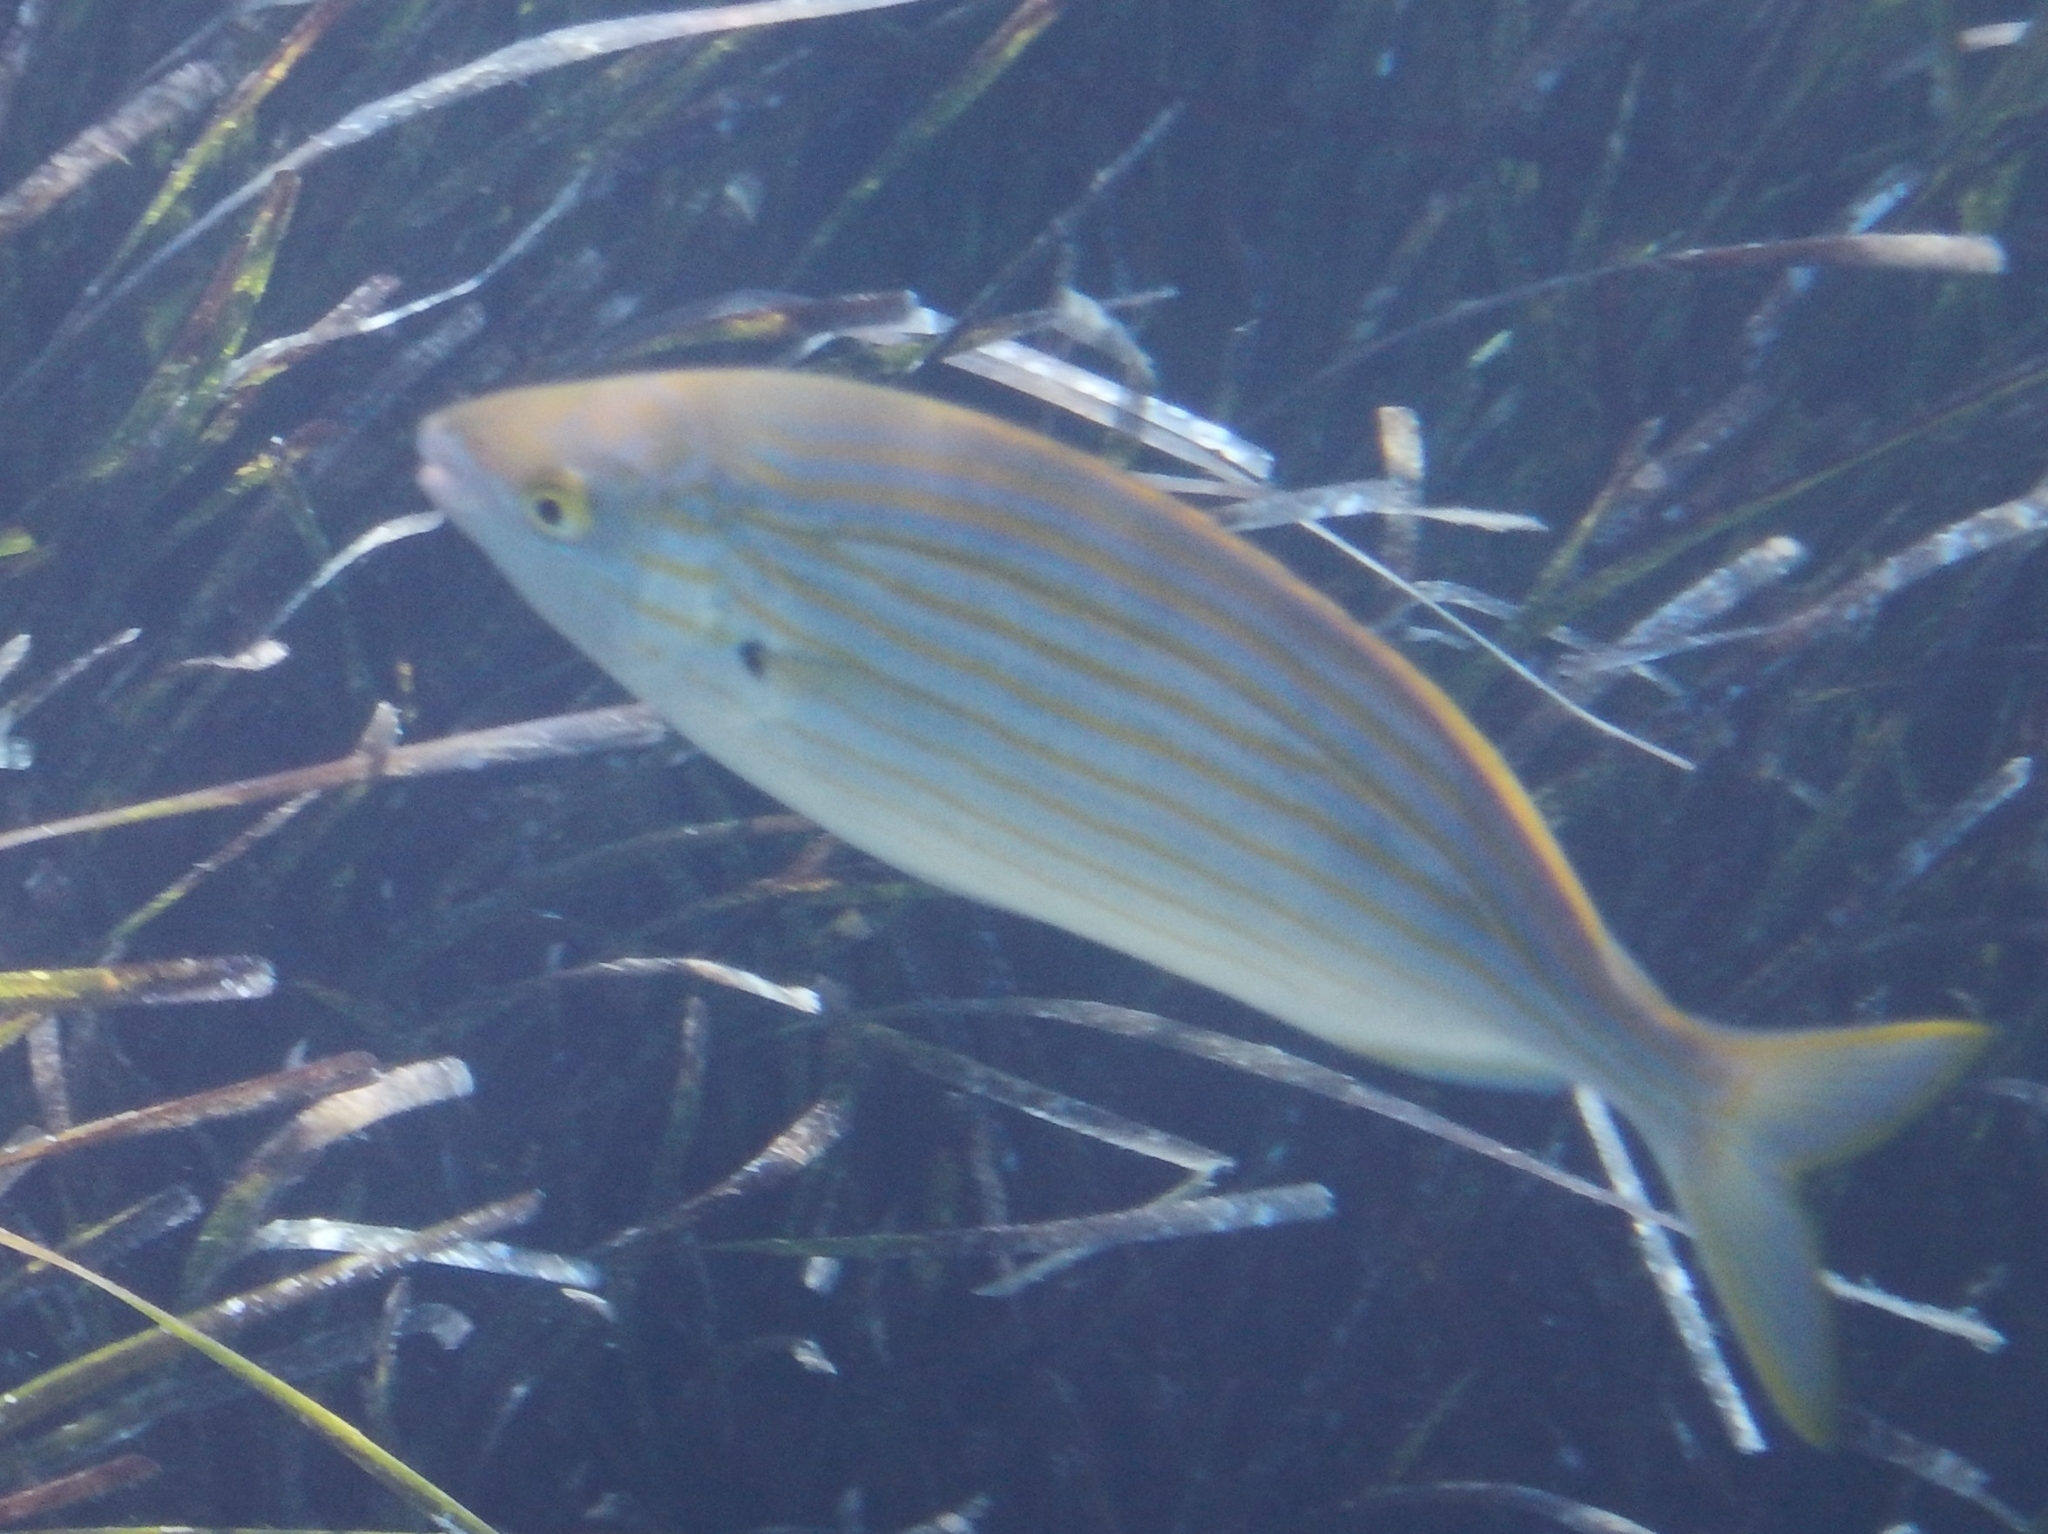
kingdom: Animalia
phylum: Chordata
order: Perciformes
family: Sparidae
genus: Sarpa
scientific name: Sarpa salpa
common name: Salema
